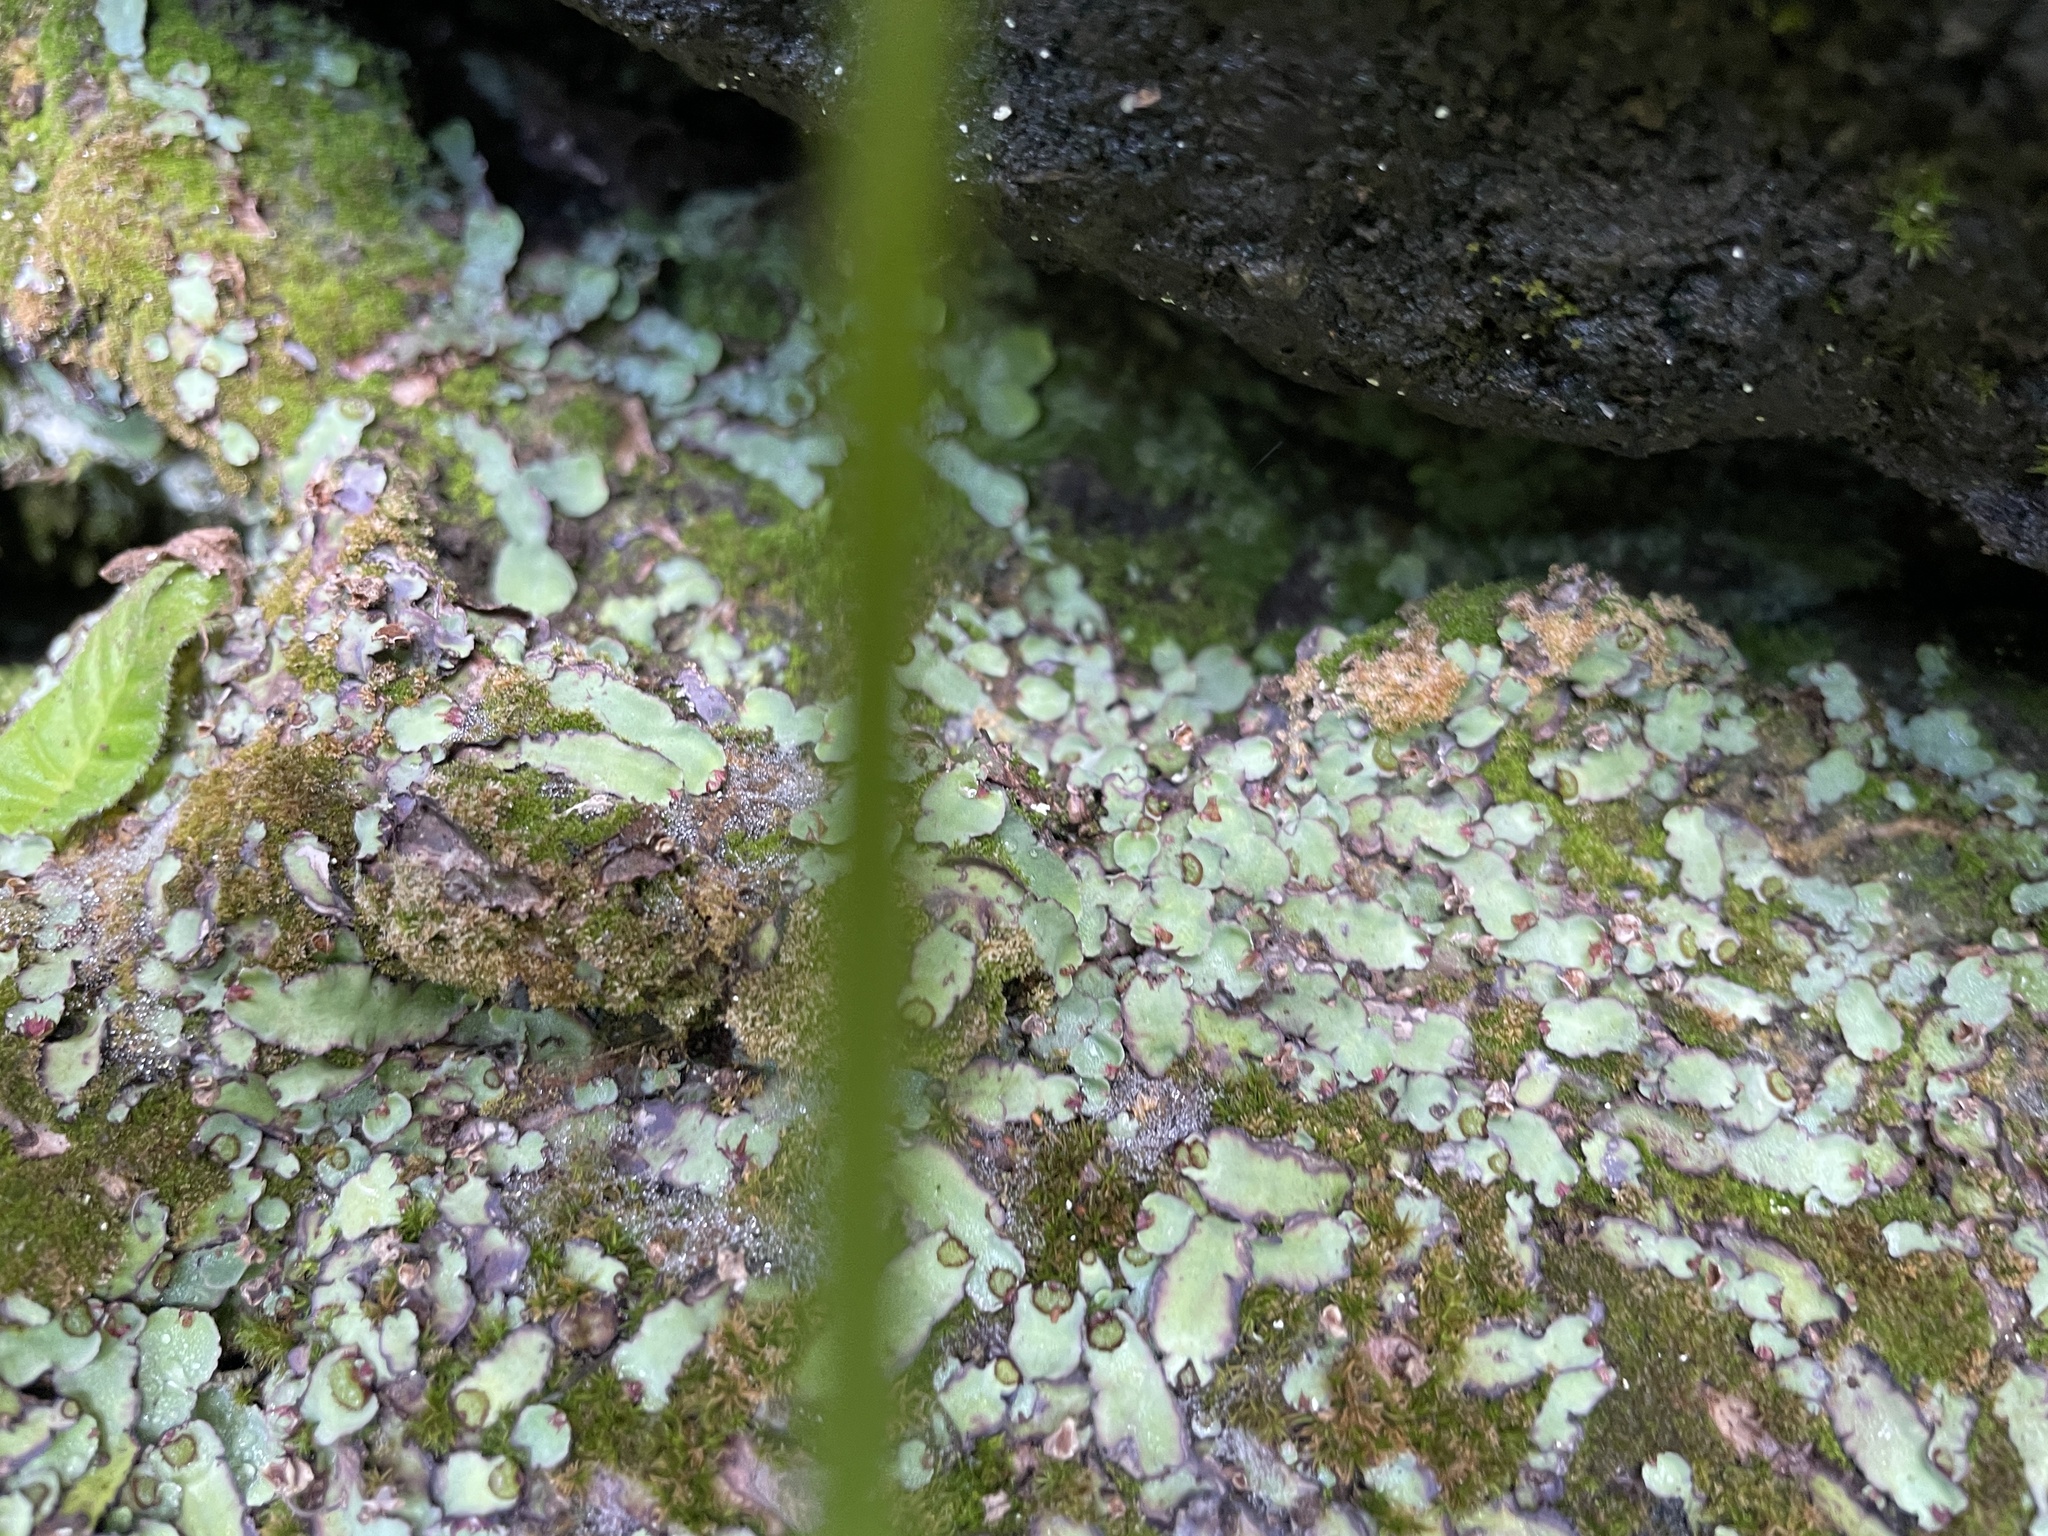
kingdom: Plantae
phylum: Marchantiophyta
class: Marchantiopsida
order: Marchantiales
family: Aytoniaceae
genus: Plagiochasma
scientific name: Plagiochasma rupestre
